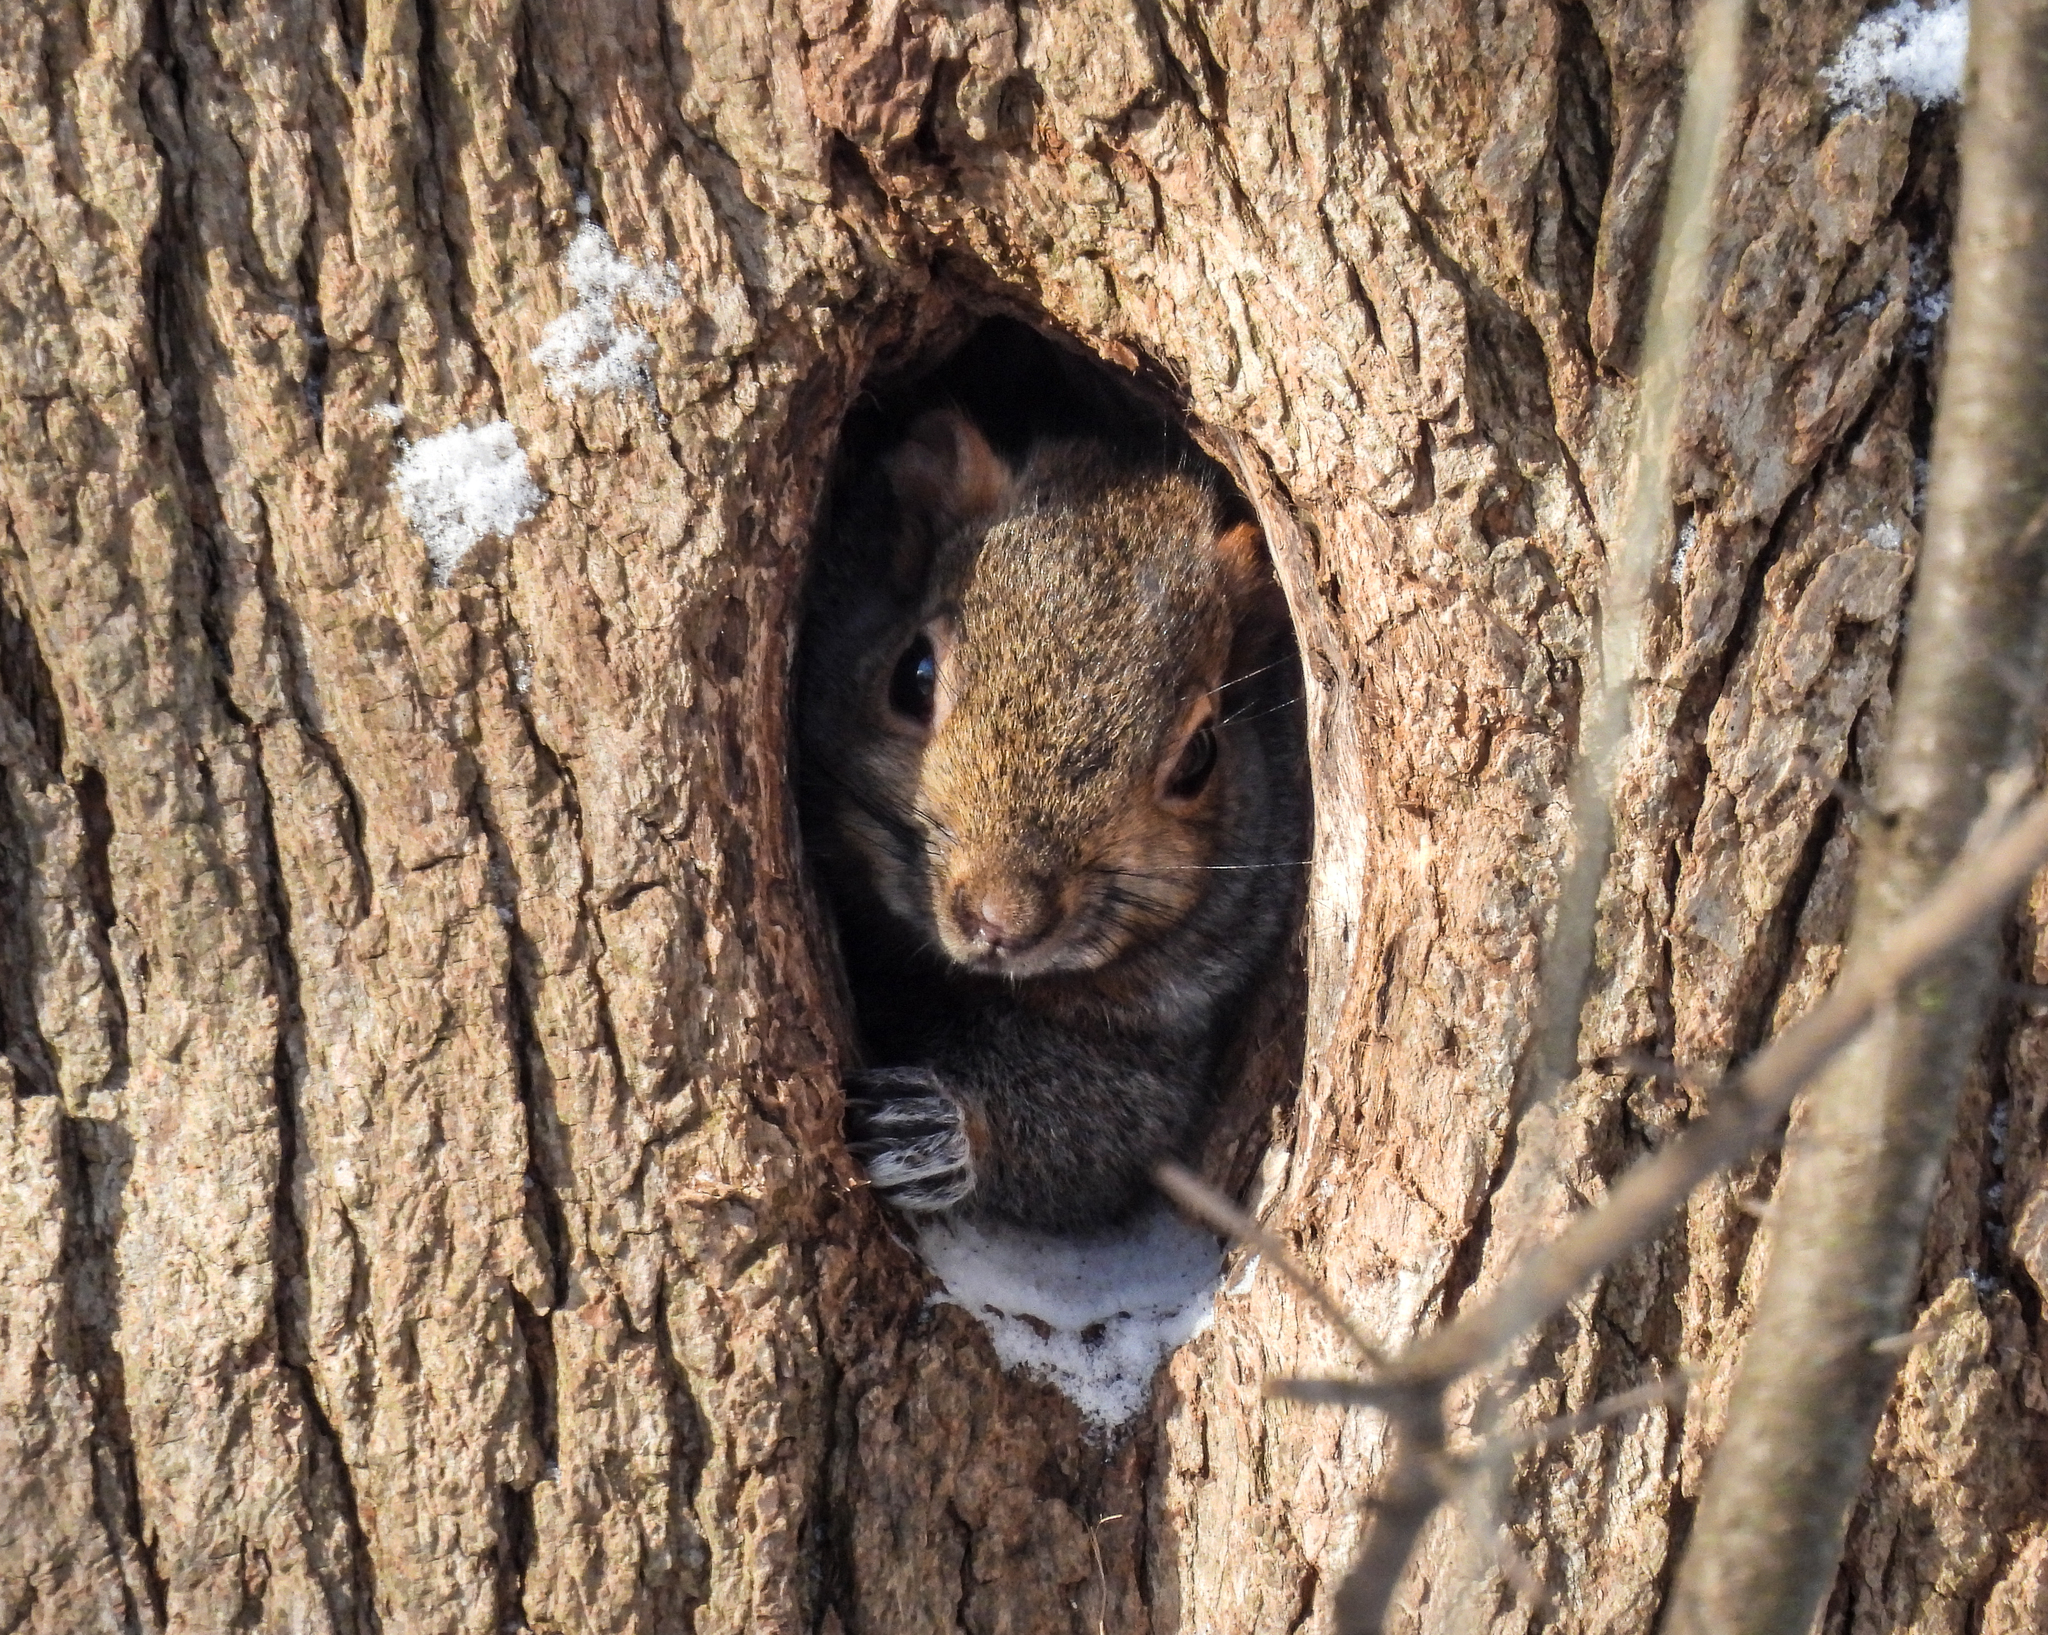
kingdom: Animalia
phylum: Chordata
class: Mammalia
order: Rodentia
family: Sciuridae
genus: Sciurus
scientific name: Sciurus carolinensis
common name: Eastern gray squirrel
